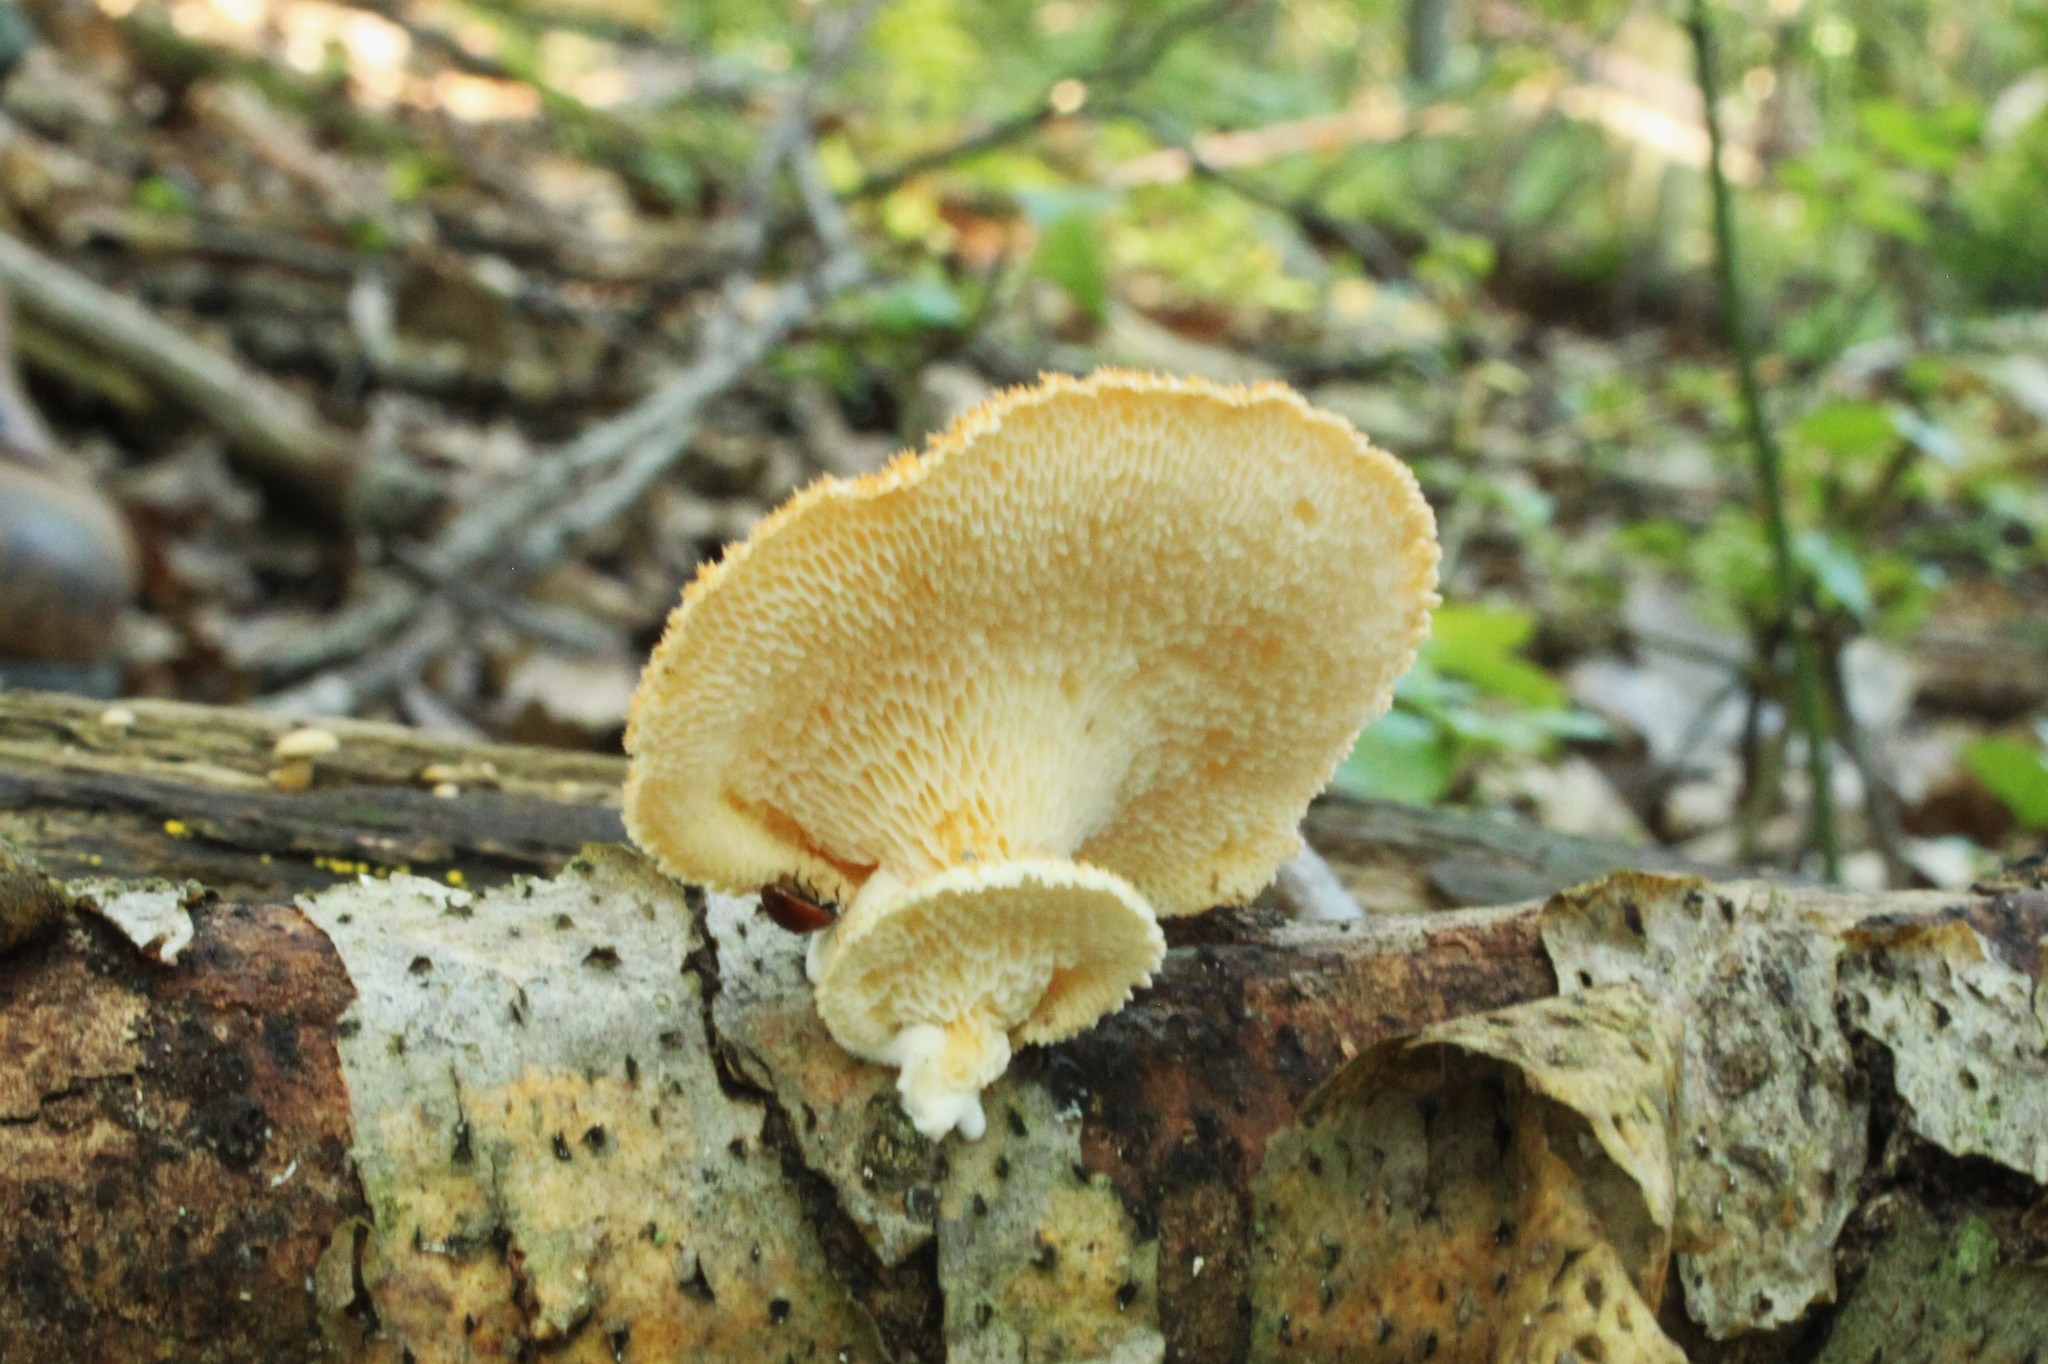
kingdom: Fungi
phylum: Basidiomycota
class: Agaricomycetes
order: Polyporales
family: Polyporaceae
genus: Neofavolus
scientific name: Neofavolus alveolaris
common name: Hexagonal-pored polypore
